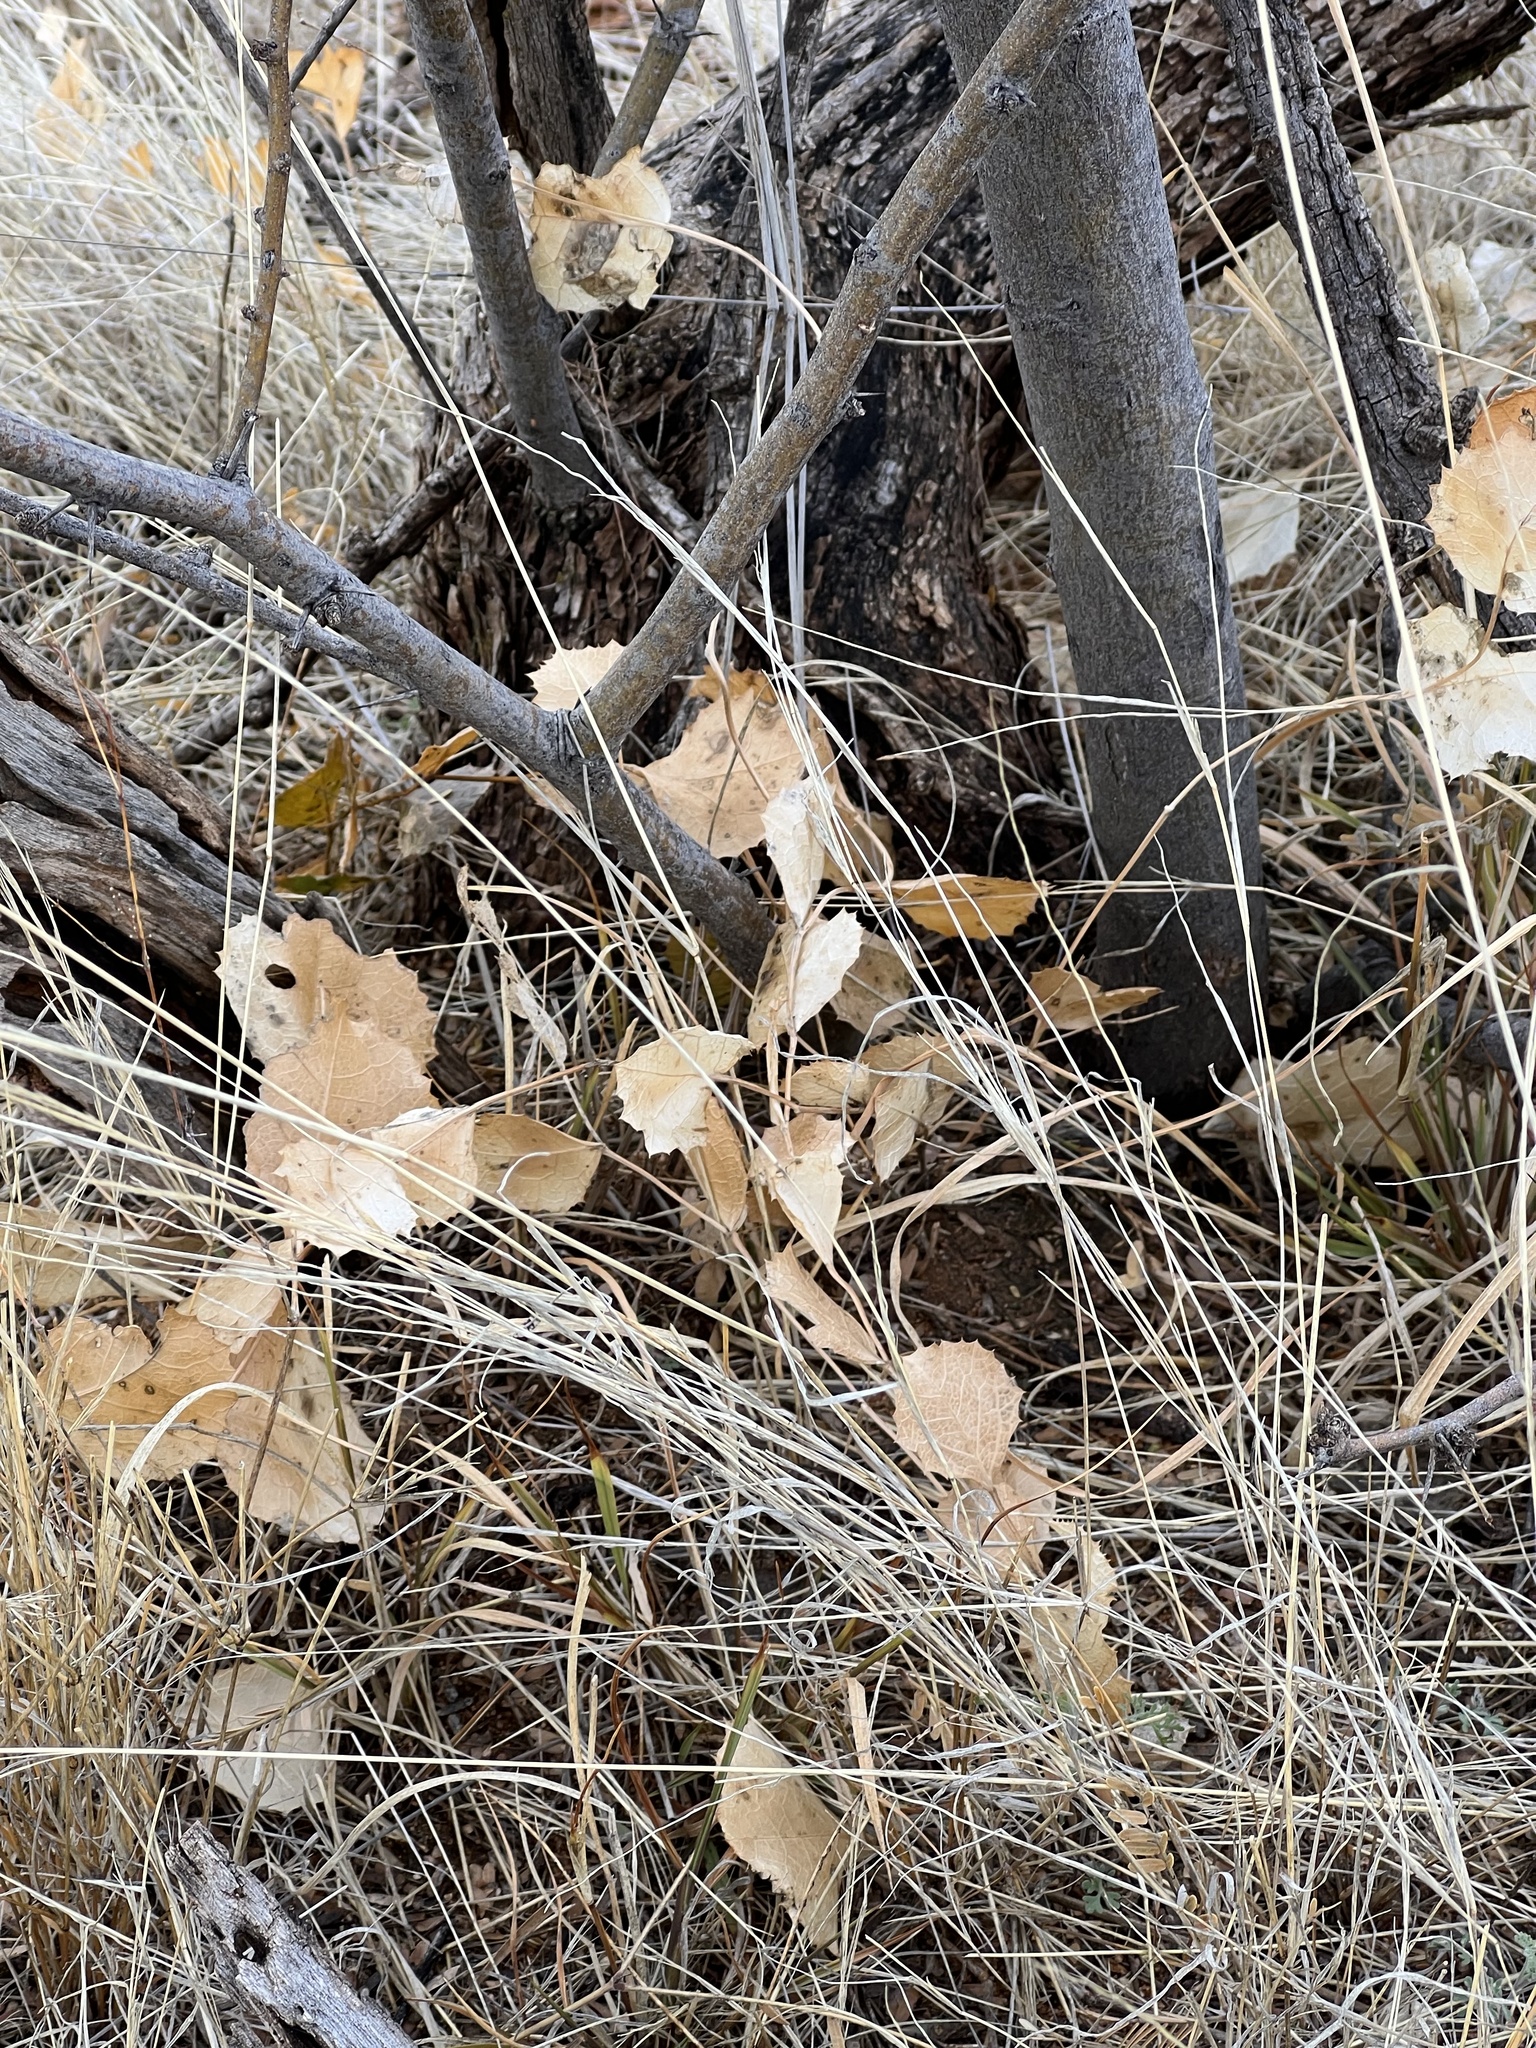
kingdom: Plantae
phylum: Tracheophyta
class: Magnoliopsida
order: Asterales
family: Asteraceae
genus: Acourtia
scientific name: Acourtia nana
